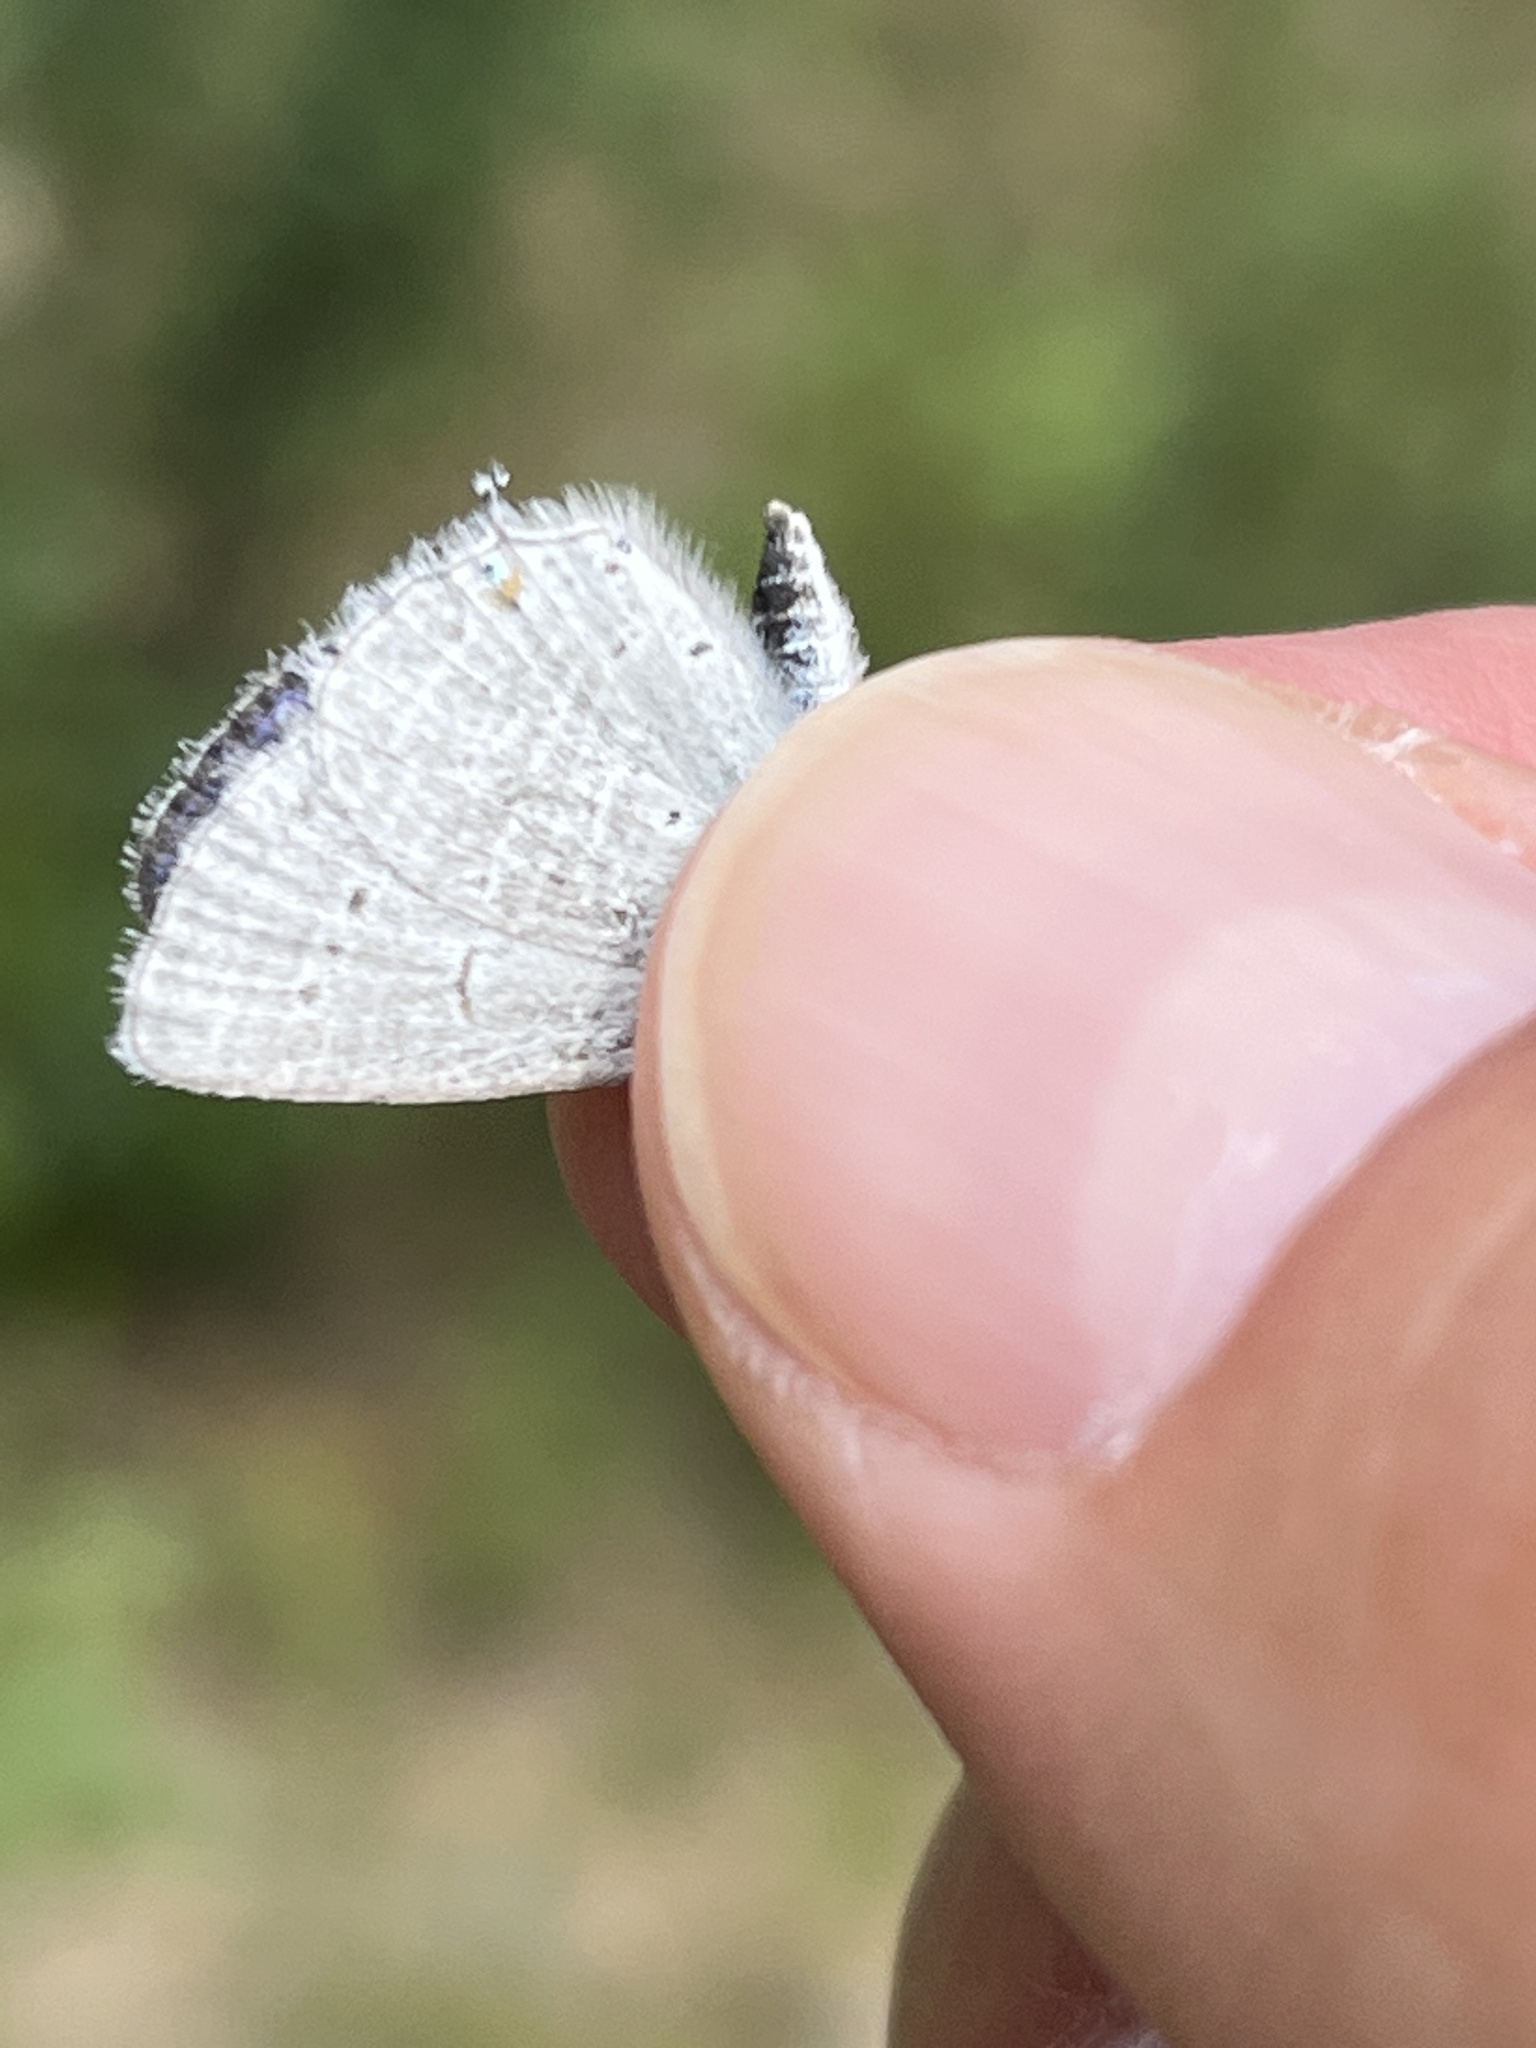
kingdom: Animalia
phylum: Arthropoda
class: Insecta
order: Lepidoptera
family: Lycaenidae
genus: Elkalyce
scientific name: Elkalyce amyntula
